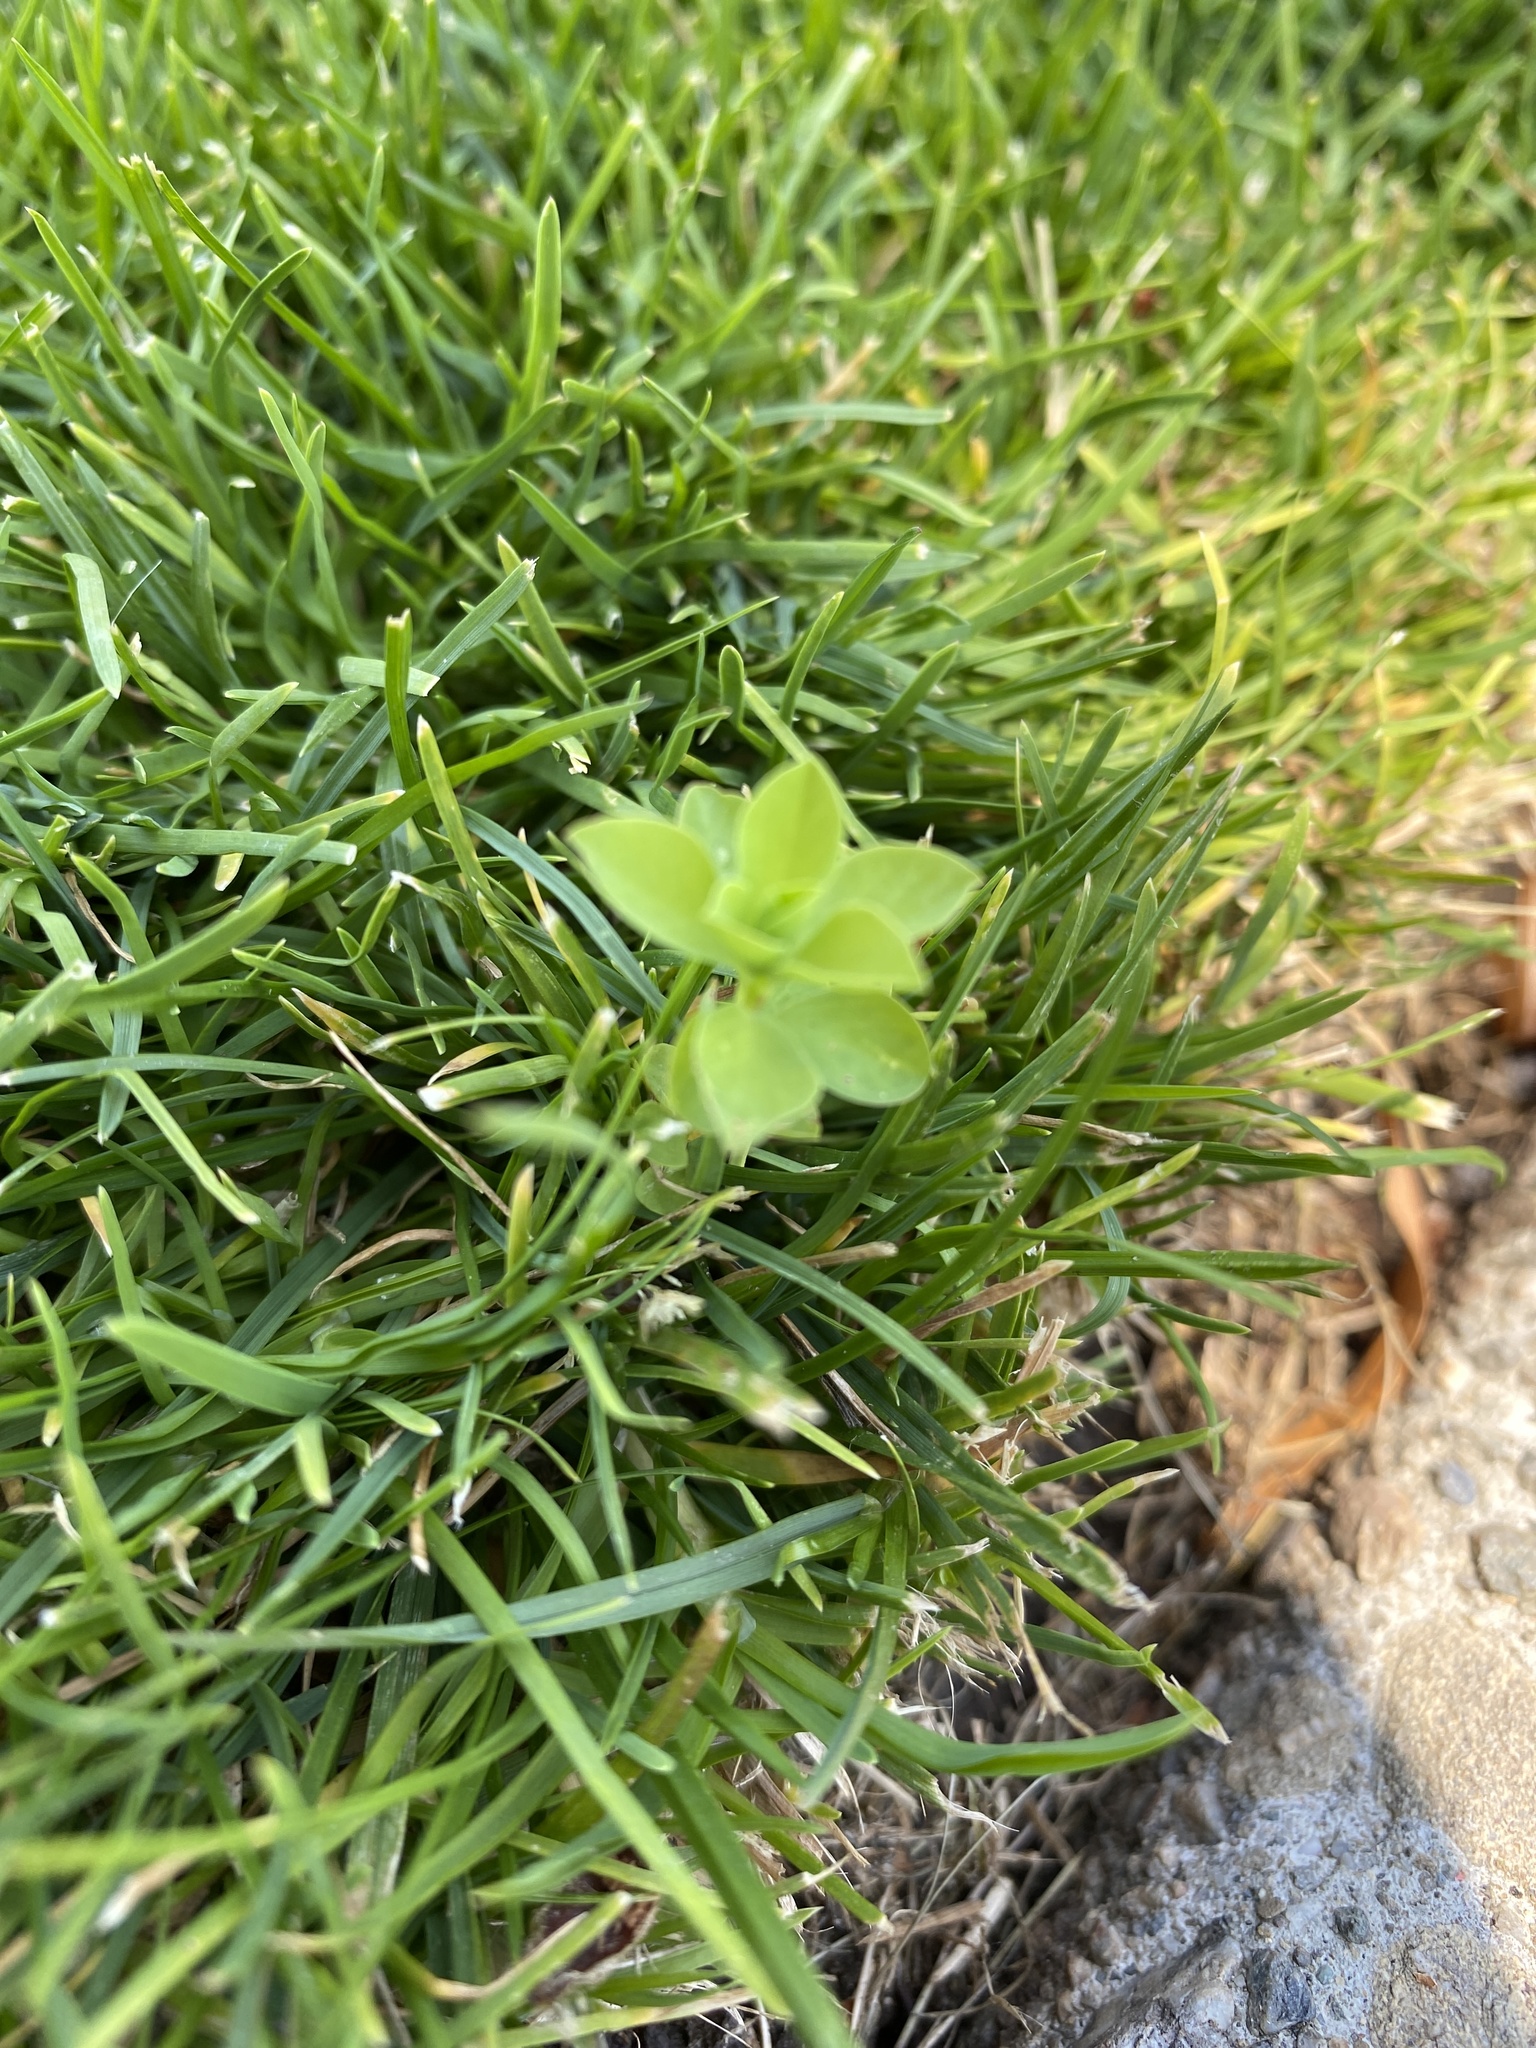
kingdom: Plantae
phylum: Tracheophyta
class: Magnoliopsida
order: Malpighiales
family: Euphorbiaceae
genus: Euphorbia
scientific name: Euphorbia peplus
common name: Petty spurge
